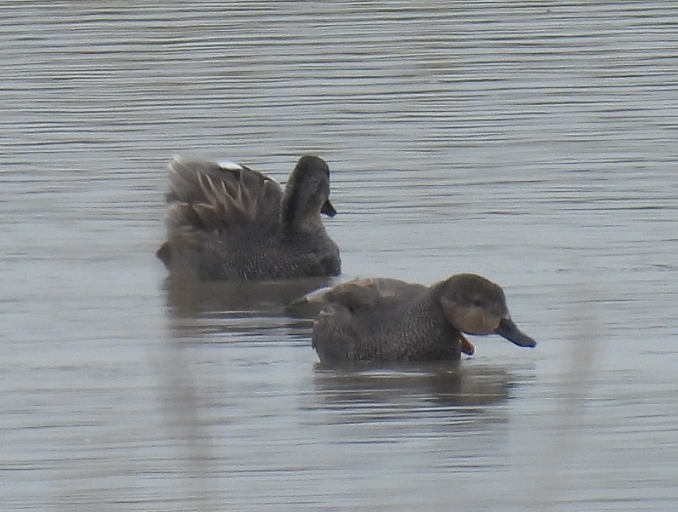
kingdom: Animalia
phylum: Chordata
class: Aves
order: Anseriformes
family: Anatidae
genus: Mareca
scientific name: Mareca strepera
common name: Gadwall
